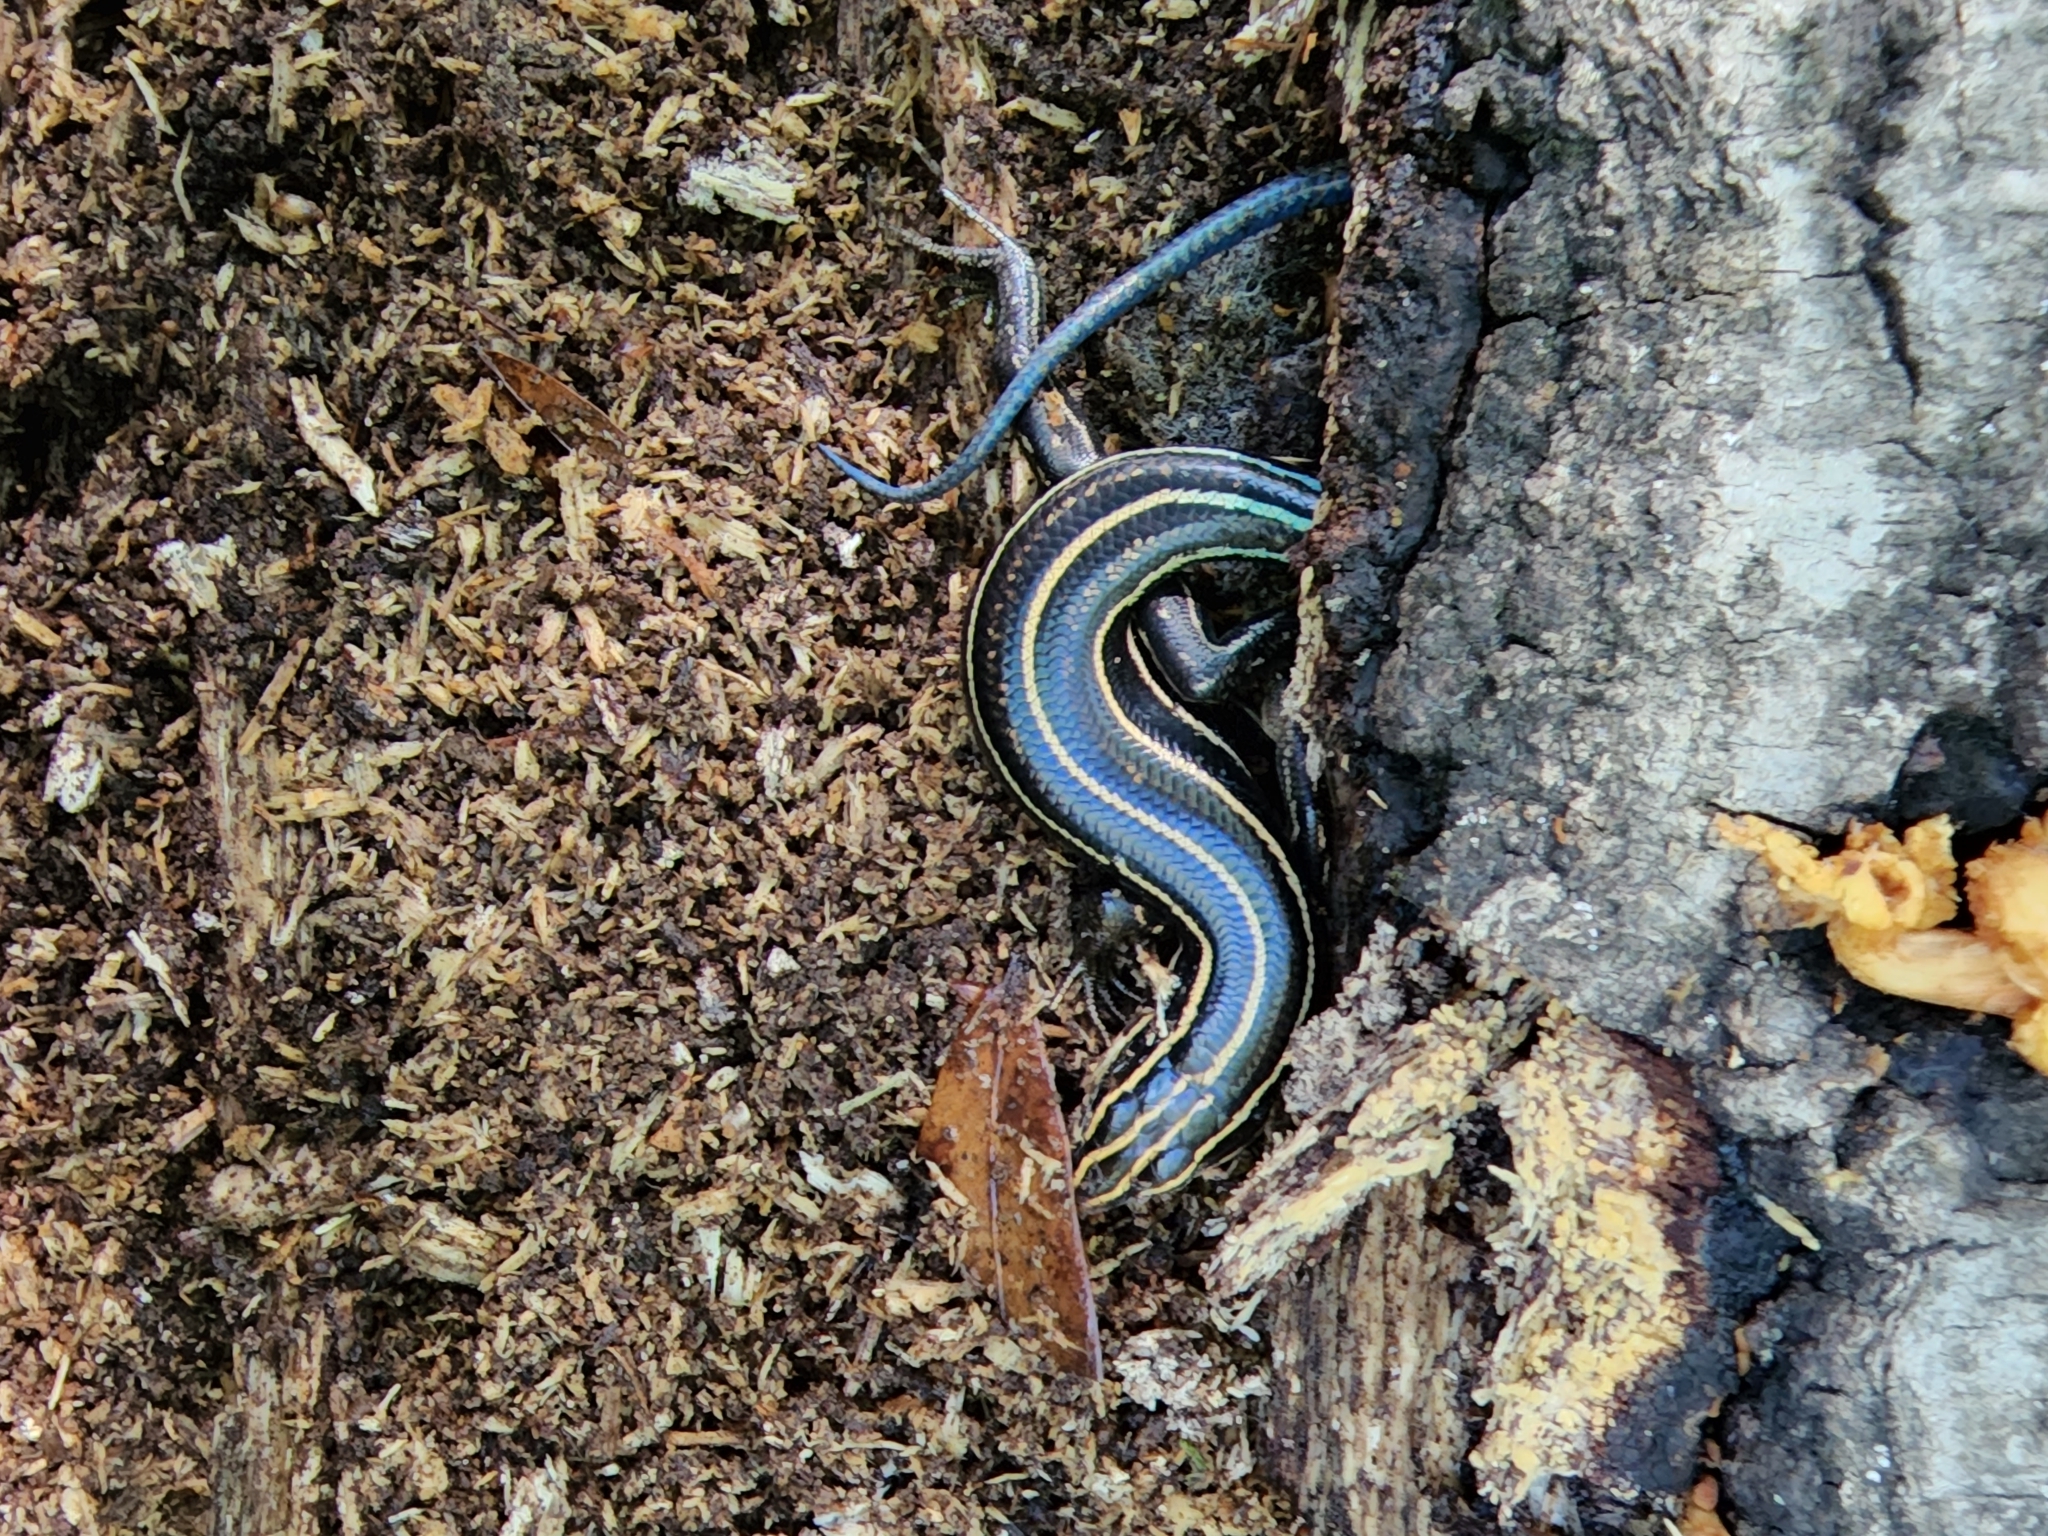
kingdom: Animalia
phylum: Chordata
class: Squamata
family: Scincidae
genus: Plestiodon
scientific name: Plestiodon laticeps
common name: Broadhead skink
